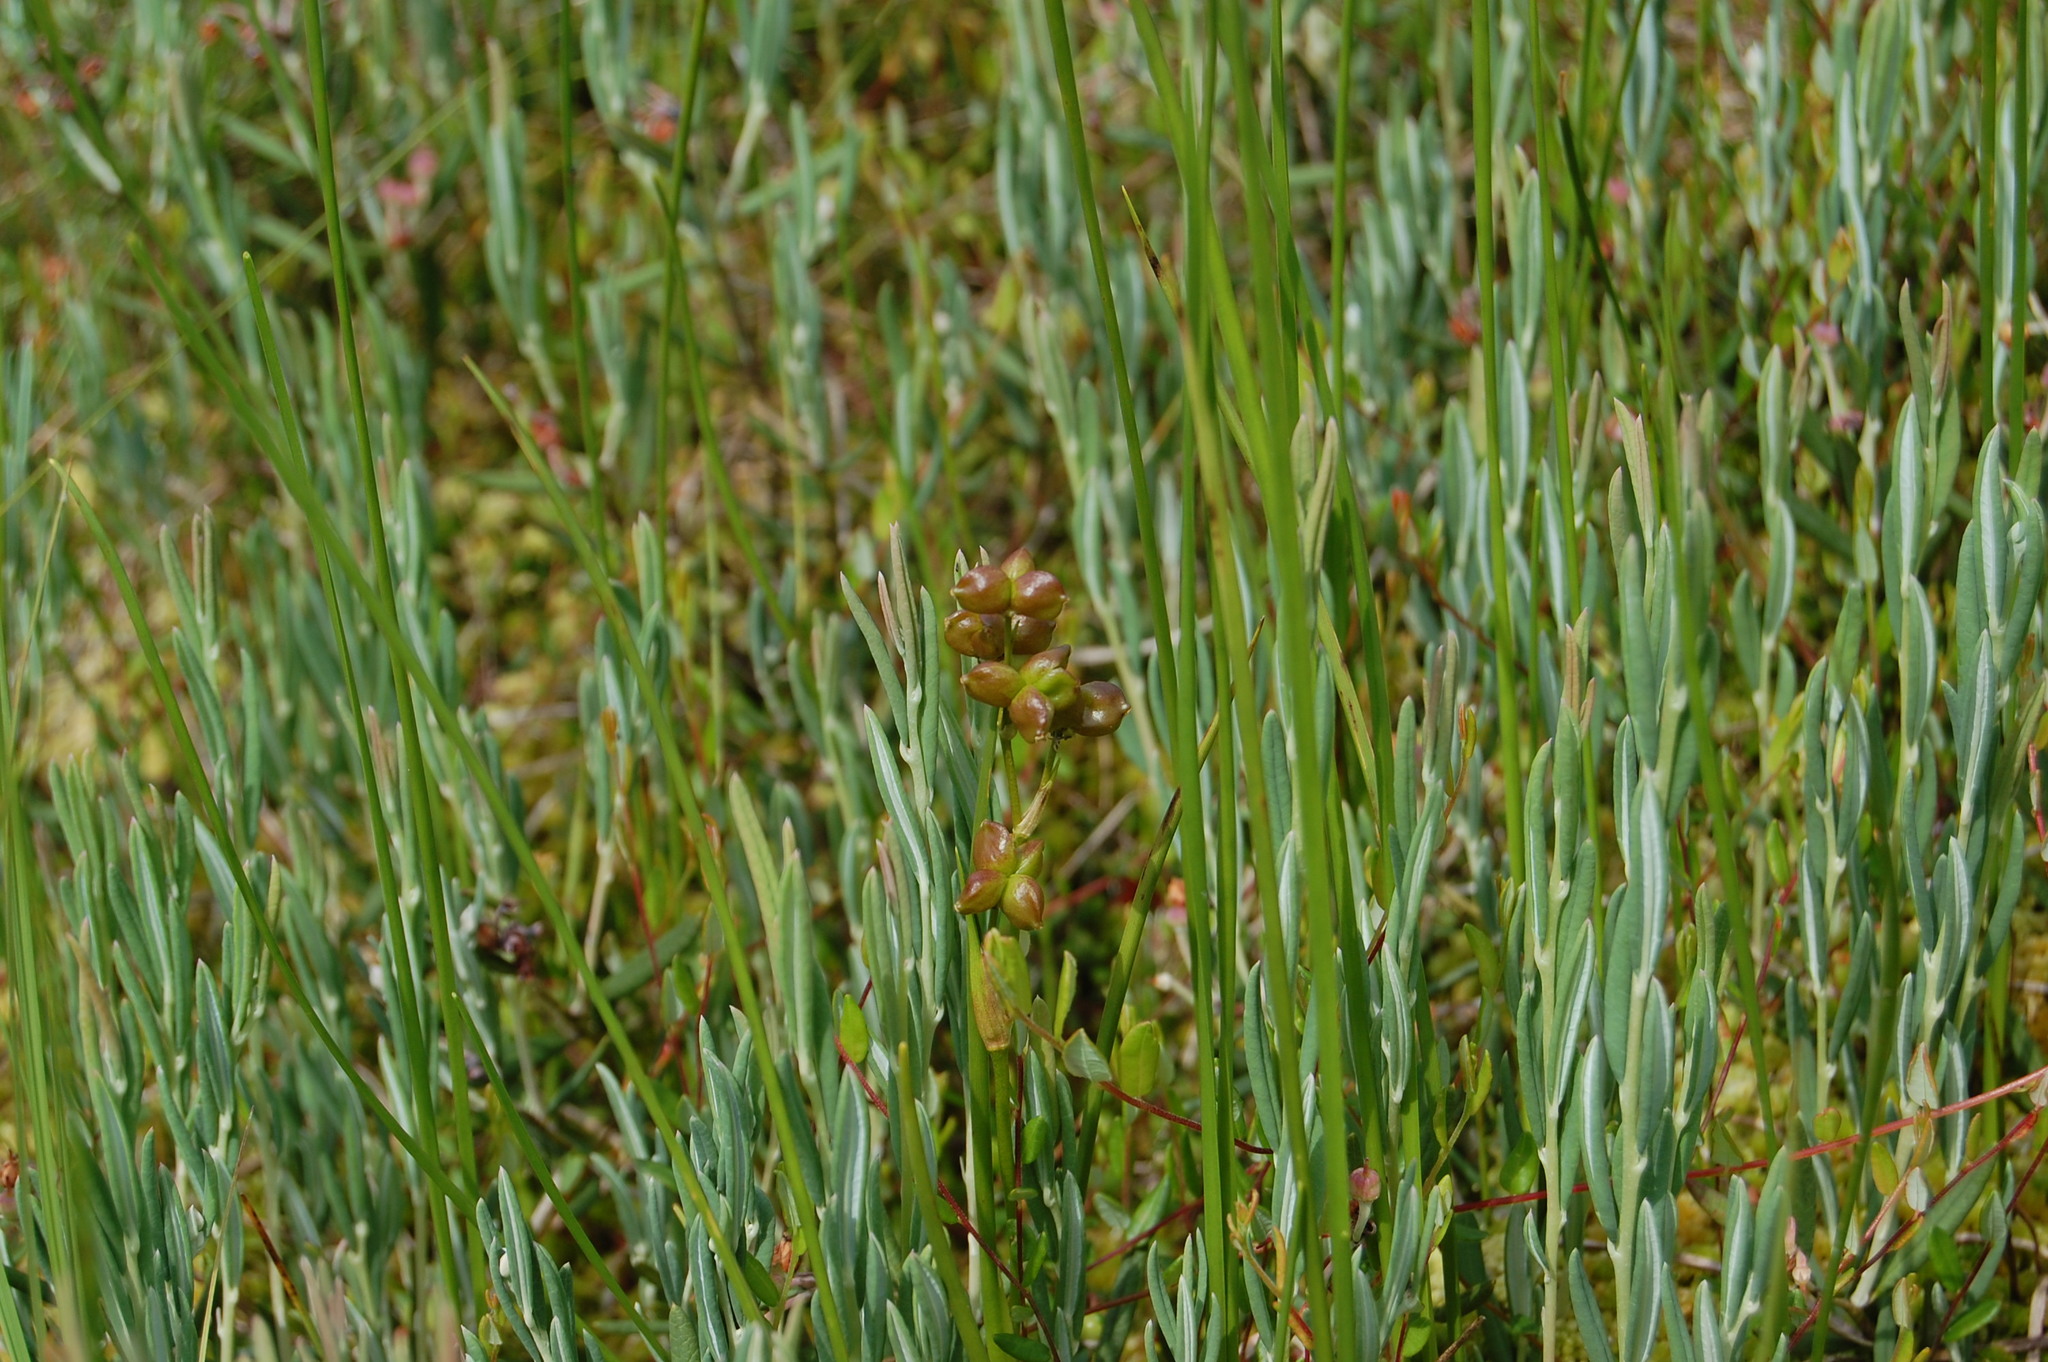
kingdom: Plantae
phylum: Tracheophyta
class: Liliopsida
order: Alismatales
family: Scheuchzeriaceae
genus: Scheuchzeria
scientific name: Scheuchzeria palustris
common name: Rannoch-rush
